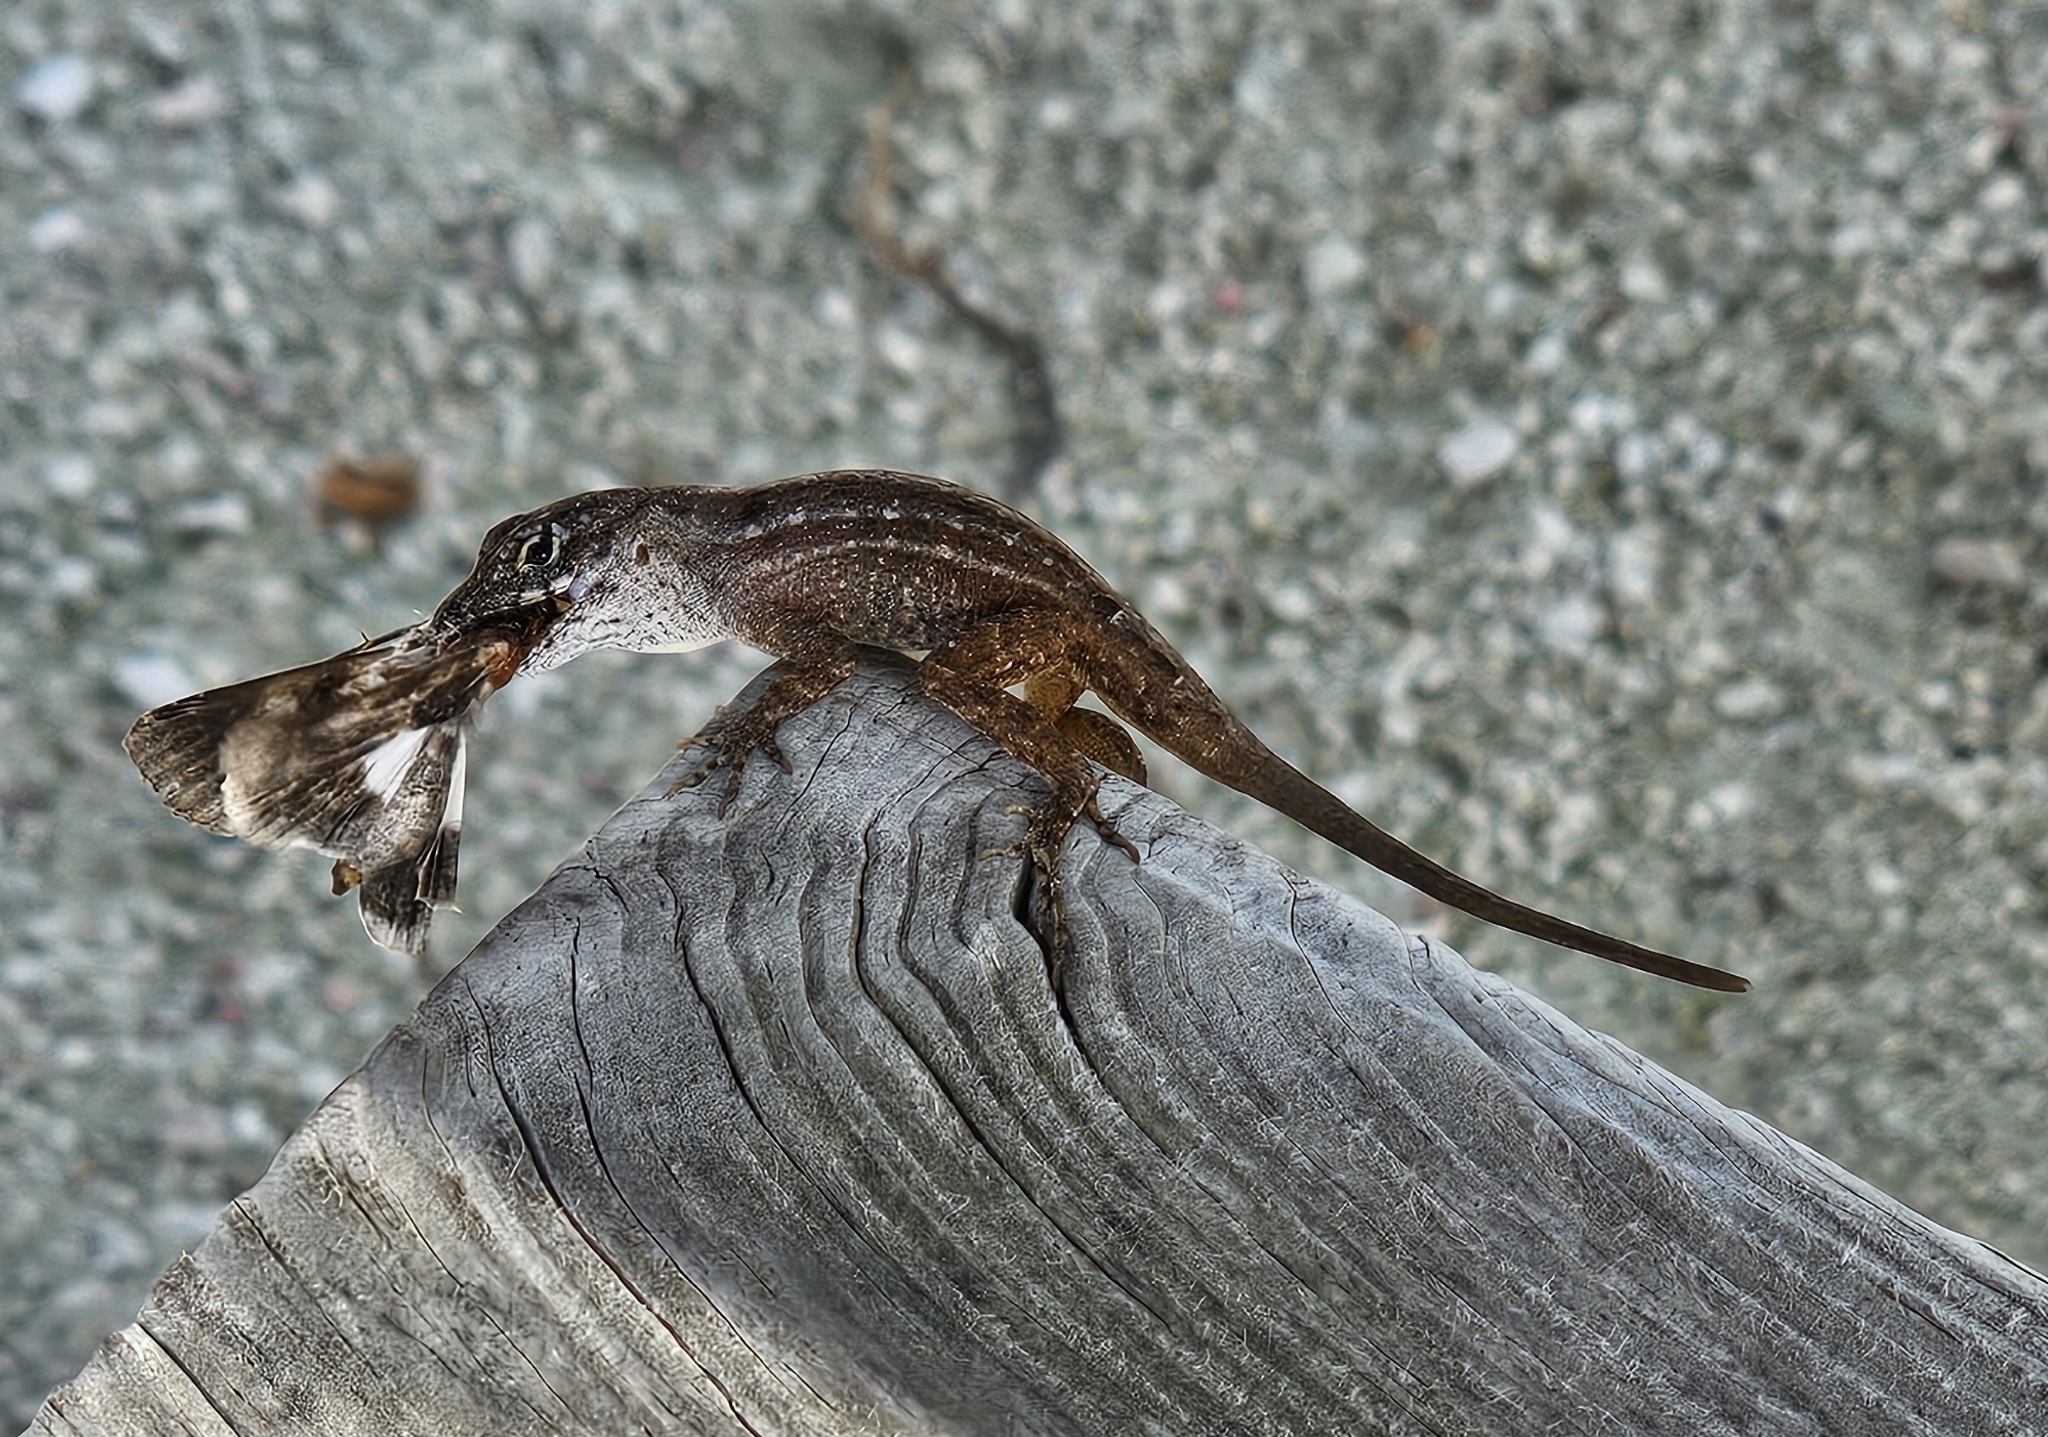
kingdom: Animalia
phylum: Chordata
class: Squamata
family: Dactyloidae
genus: Anolis
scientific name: Anolis sagrei
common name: Brown anole
